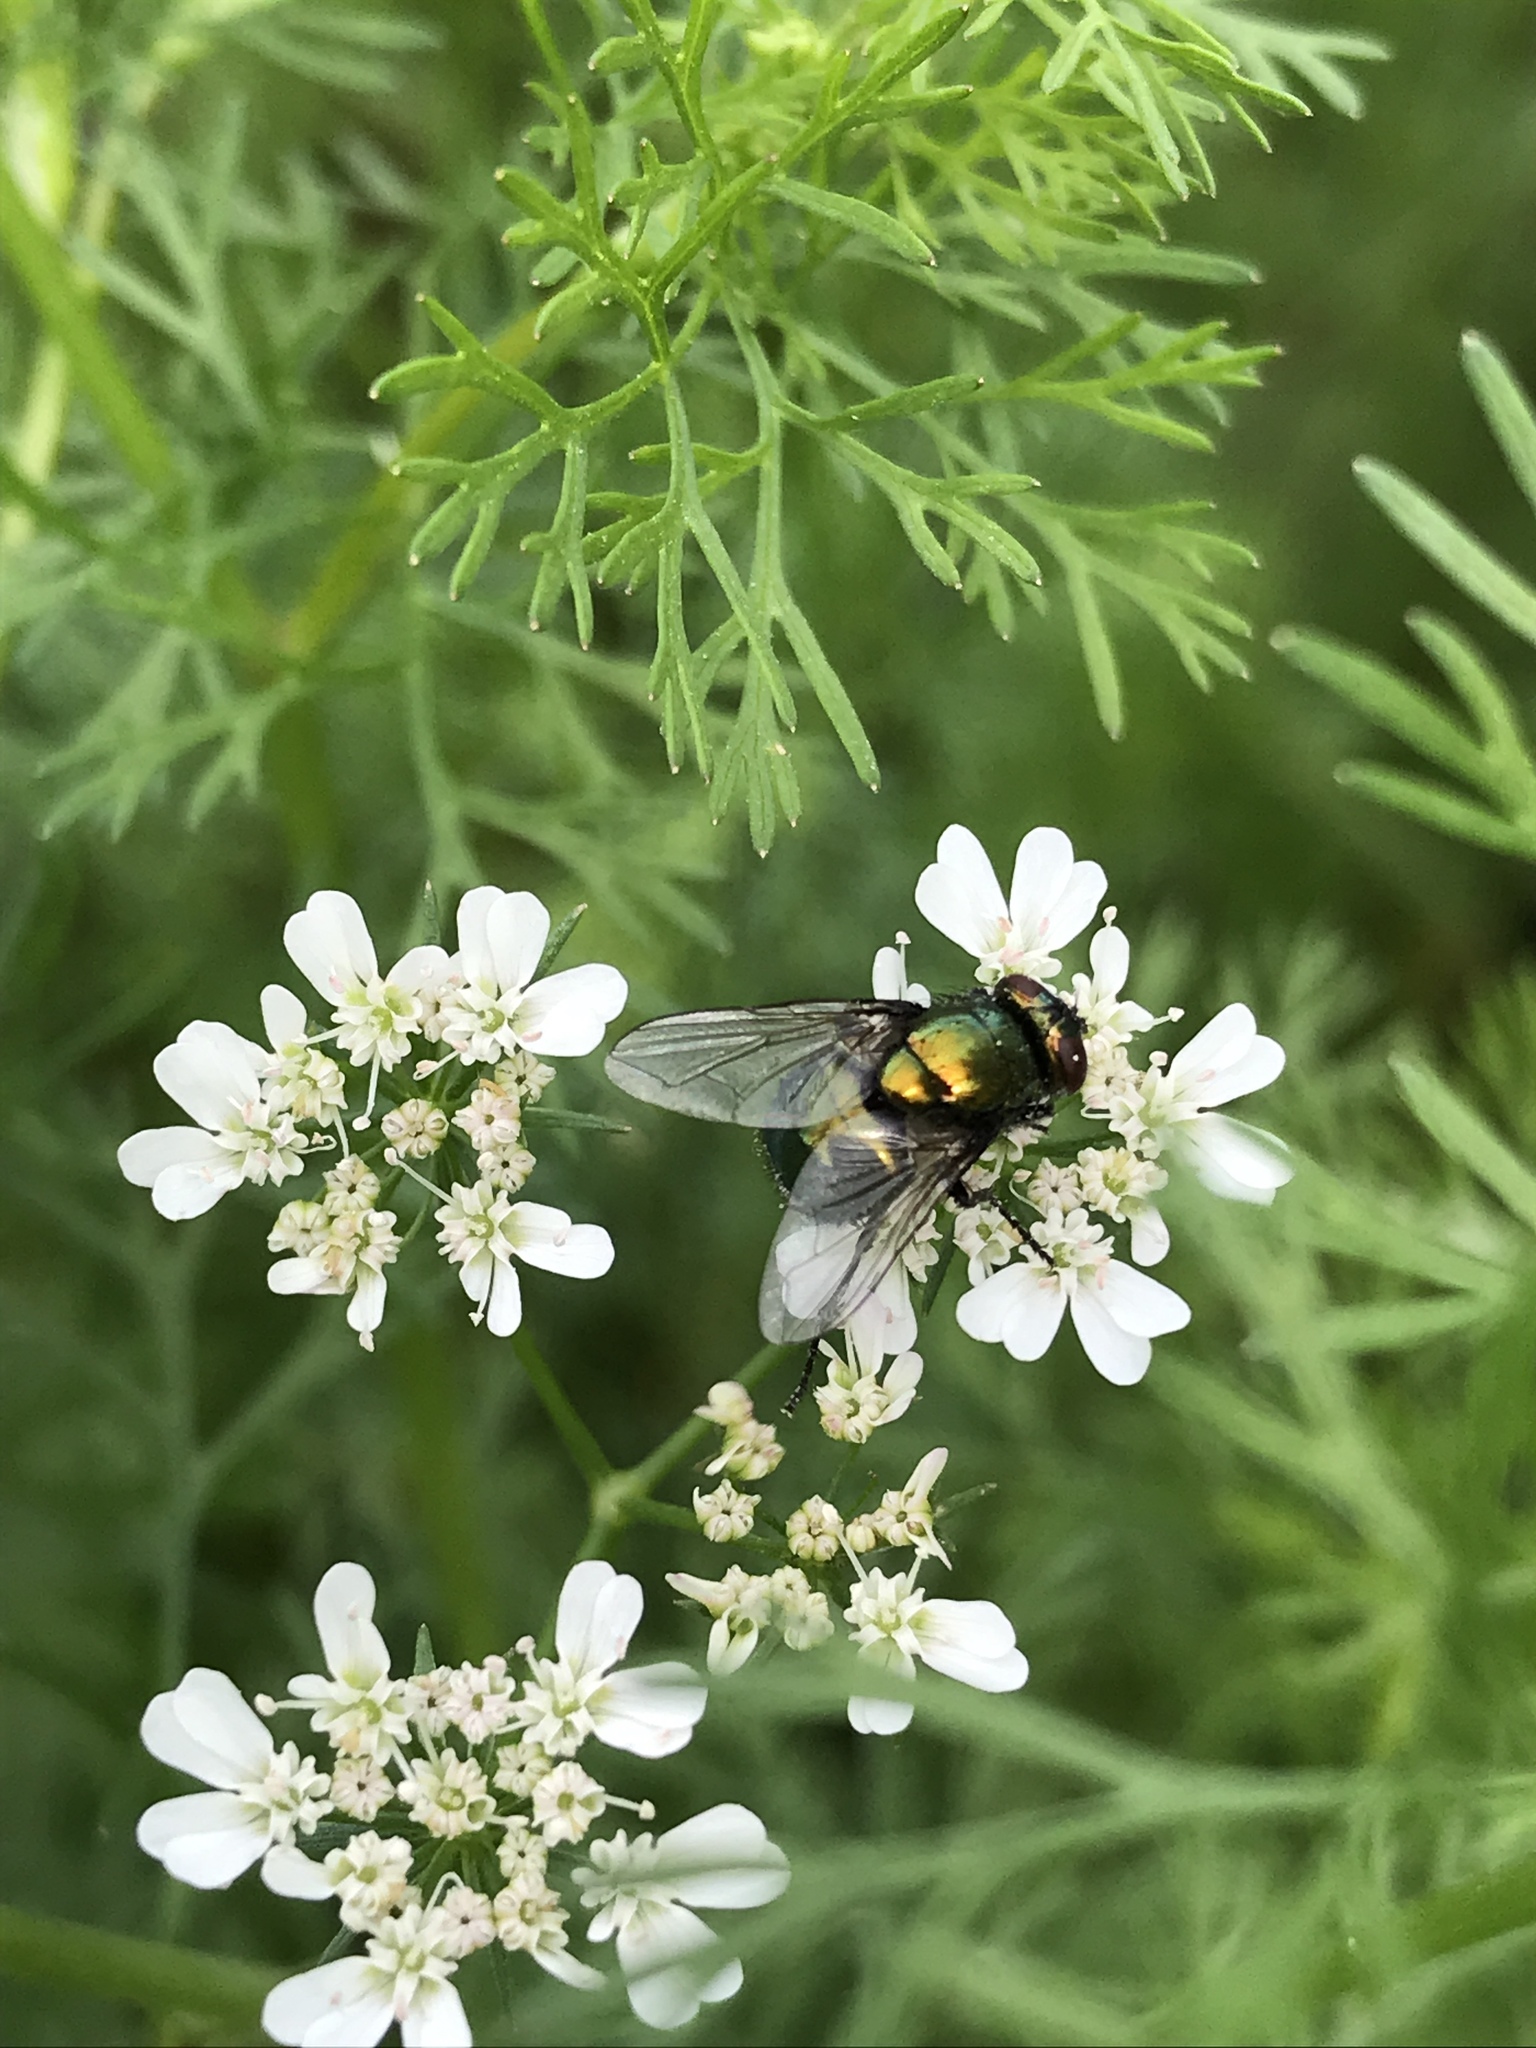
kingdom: Animalia
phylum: Arthropoda
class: Insecta
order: Diptera
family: Muscidae
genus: Neomyia
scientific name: Neomyia cornicina
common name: House fly
